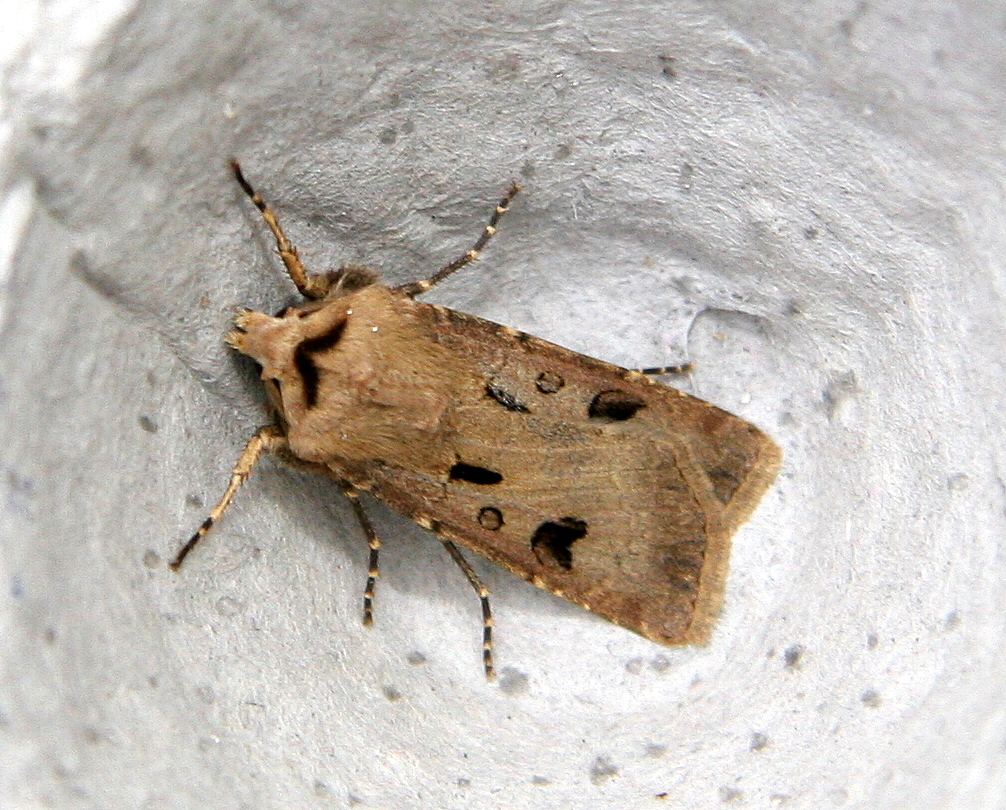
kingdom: Animalia
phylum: Arthropoda
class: Insecta
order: Lepidoptera
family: Noctuidae
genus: Agrotis
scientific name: Agrotis exclamationis
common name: Heart and dart
